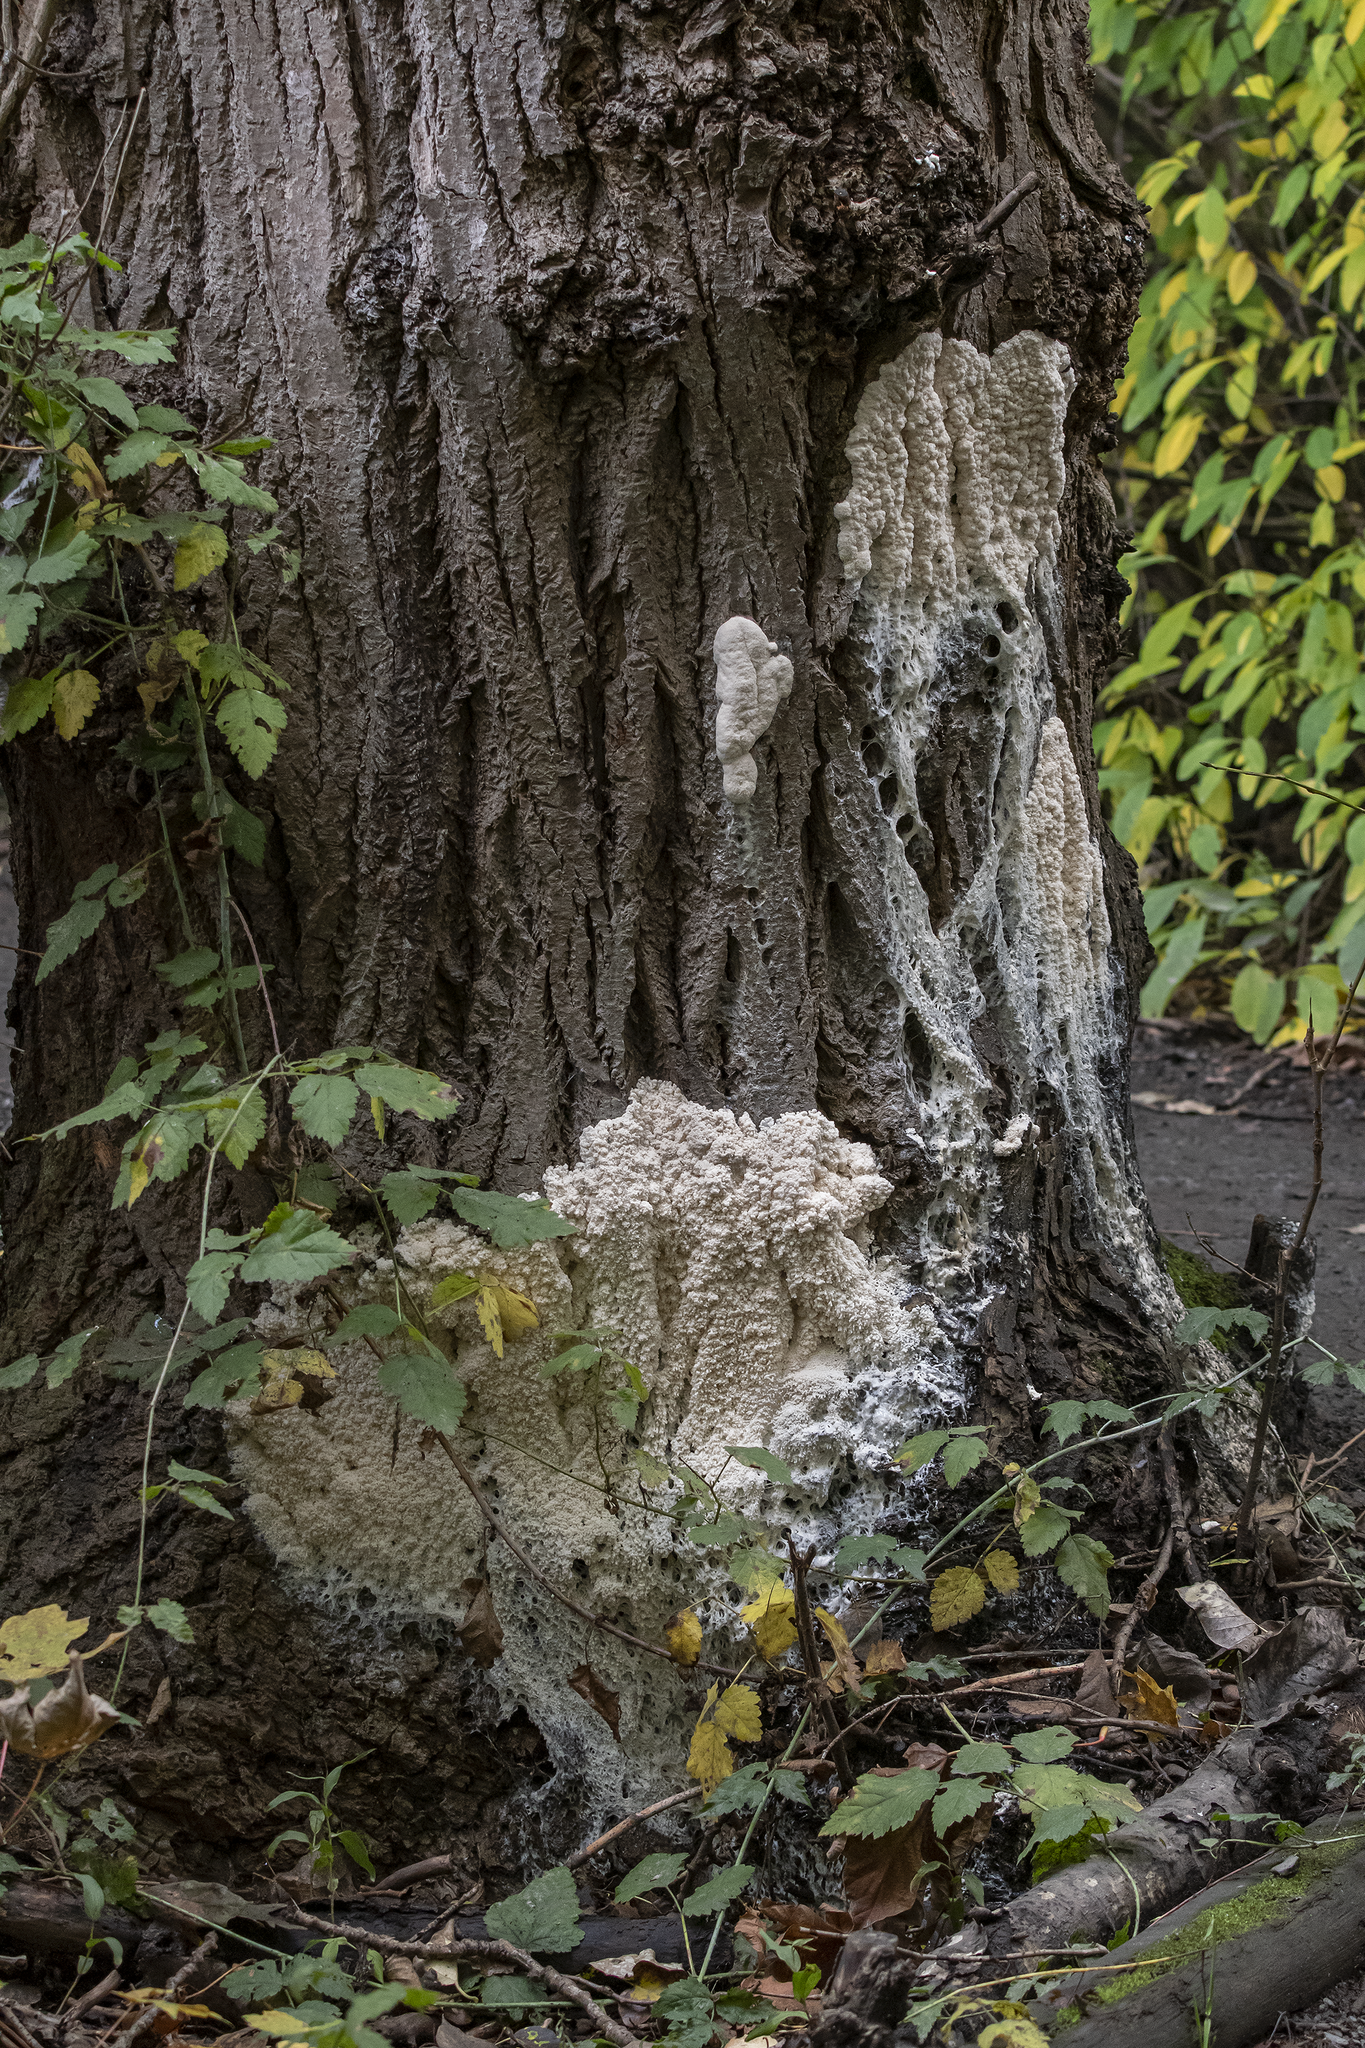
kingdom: Protozoa
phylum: Mycetozoa
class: Myxomycetes
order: Stemonitidales
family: Stemonitidaceae
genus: Brefeldia
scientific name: Brefeldia maxima
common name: Tapioca slime mold
